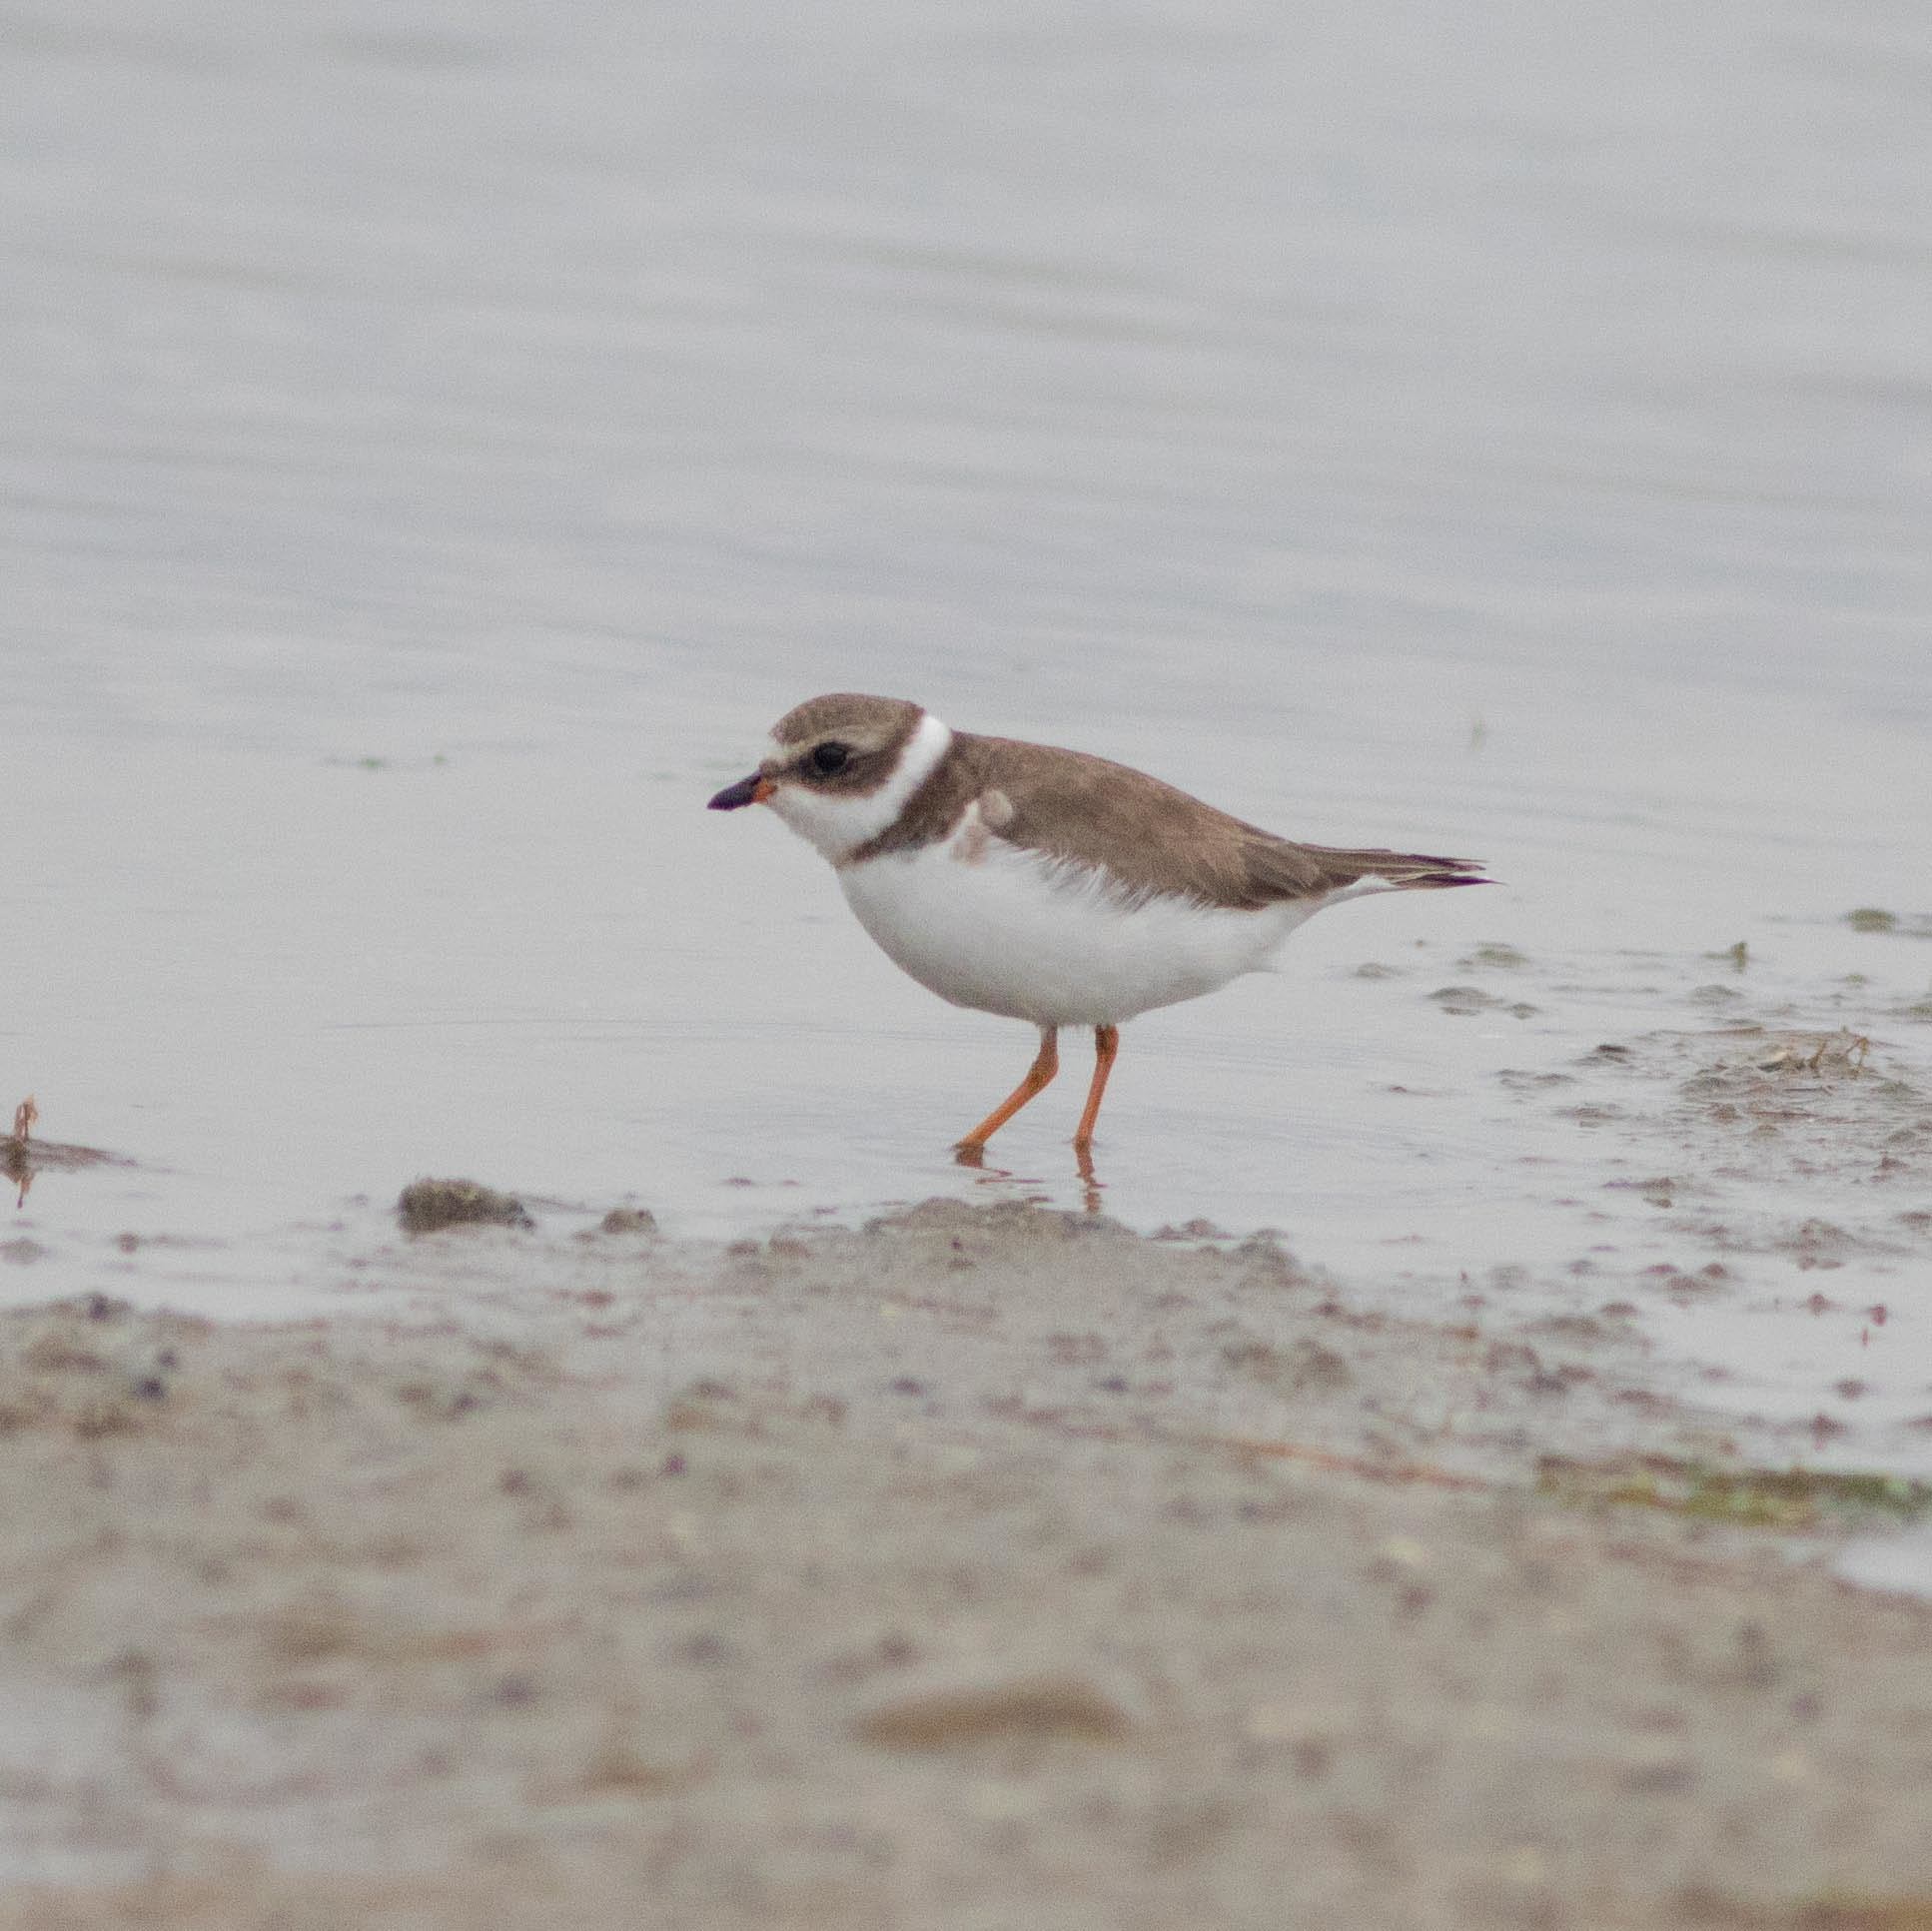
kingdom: Animalia
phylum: Chordata
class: Aves
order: Charadriiformes
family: Charadriidae
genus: Charadrius
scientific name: Charadrius semipalmatus
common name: Semipalmated plover
